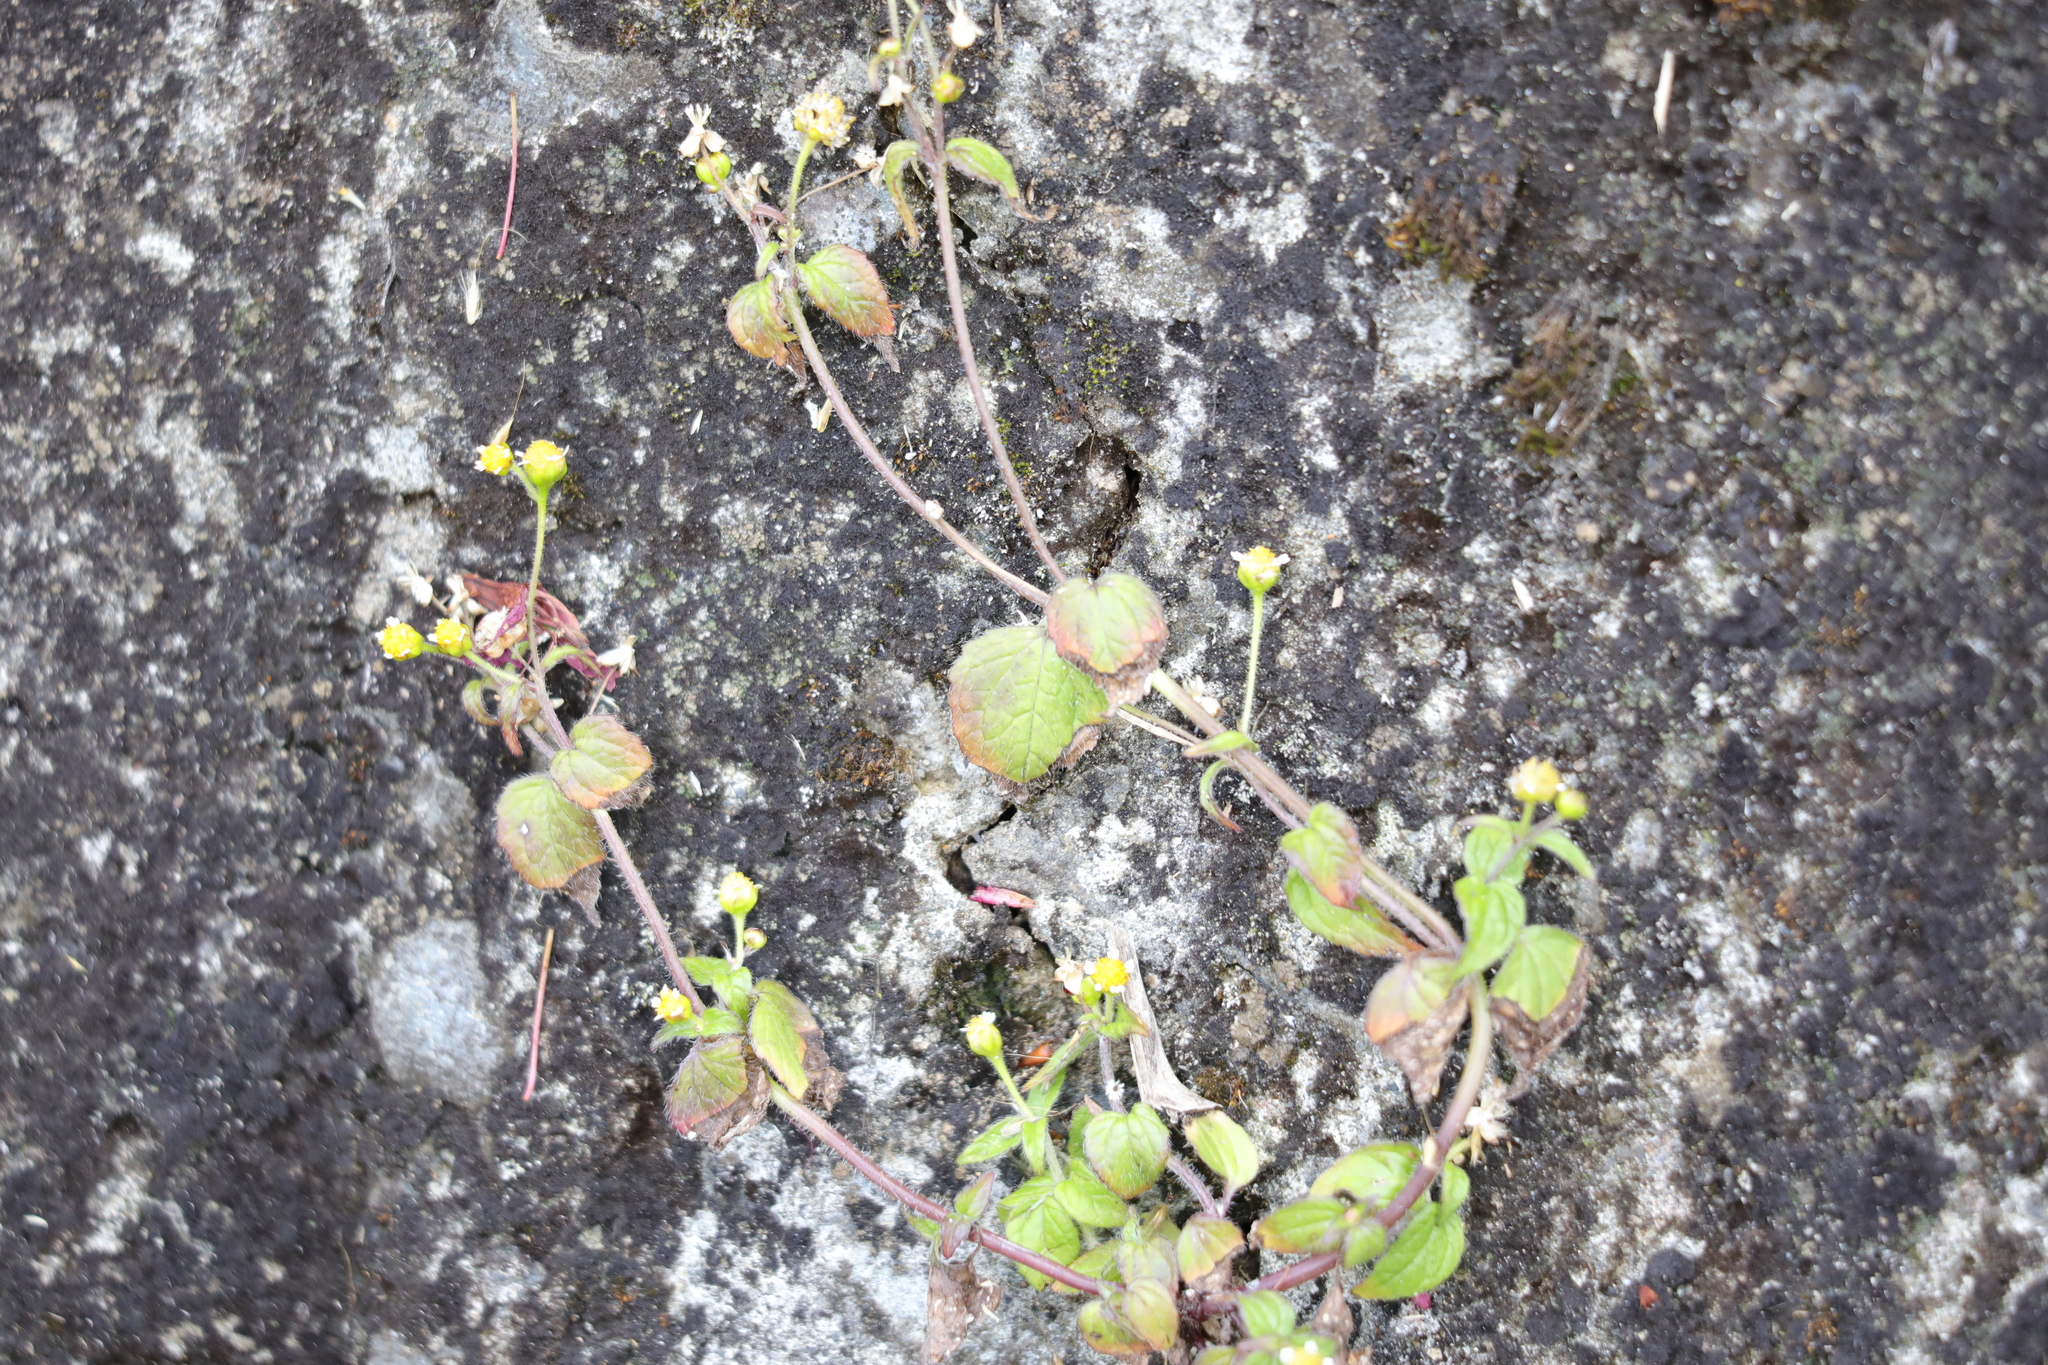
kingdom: Plantae
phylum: Tracheophyta
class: Magnoliopsida
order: Asterales
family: Asteraceae
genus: Galinsoga
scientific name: Galinsoga parviflora
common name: Gallant soldier
